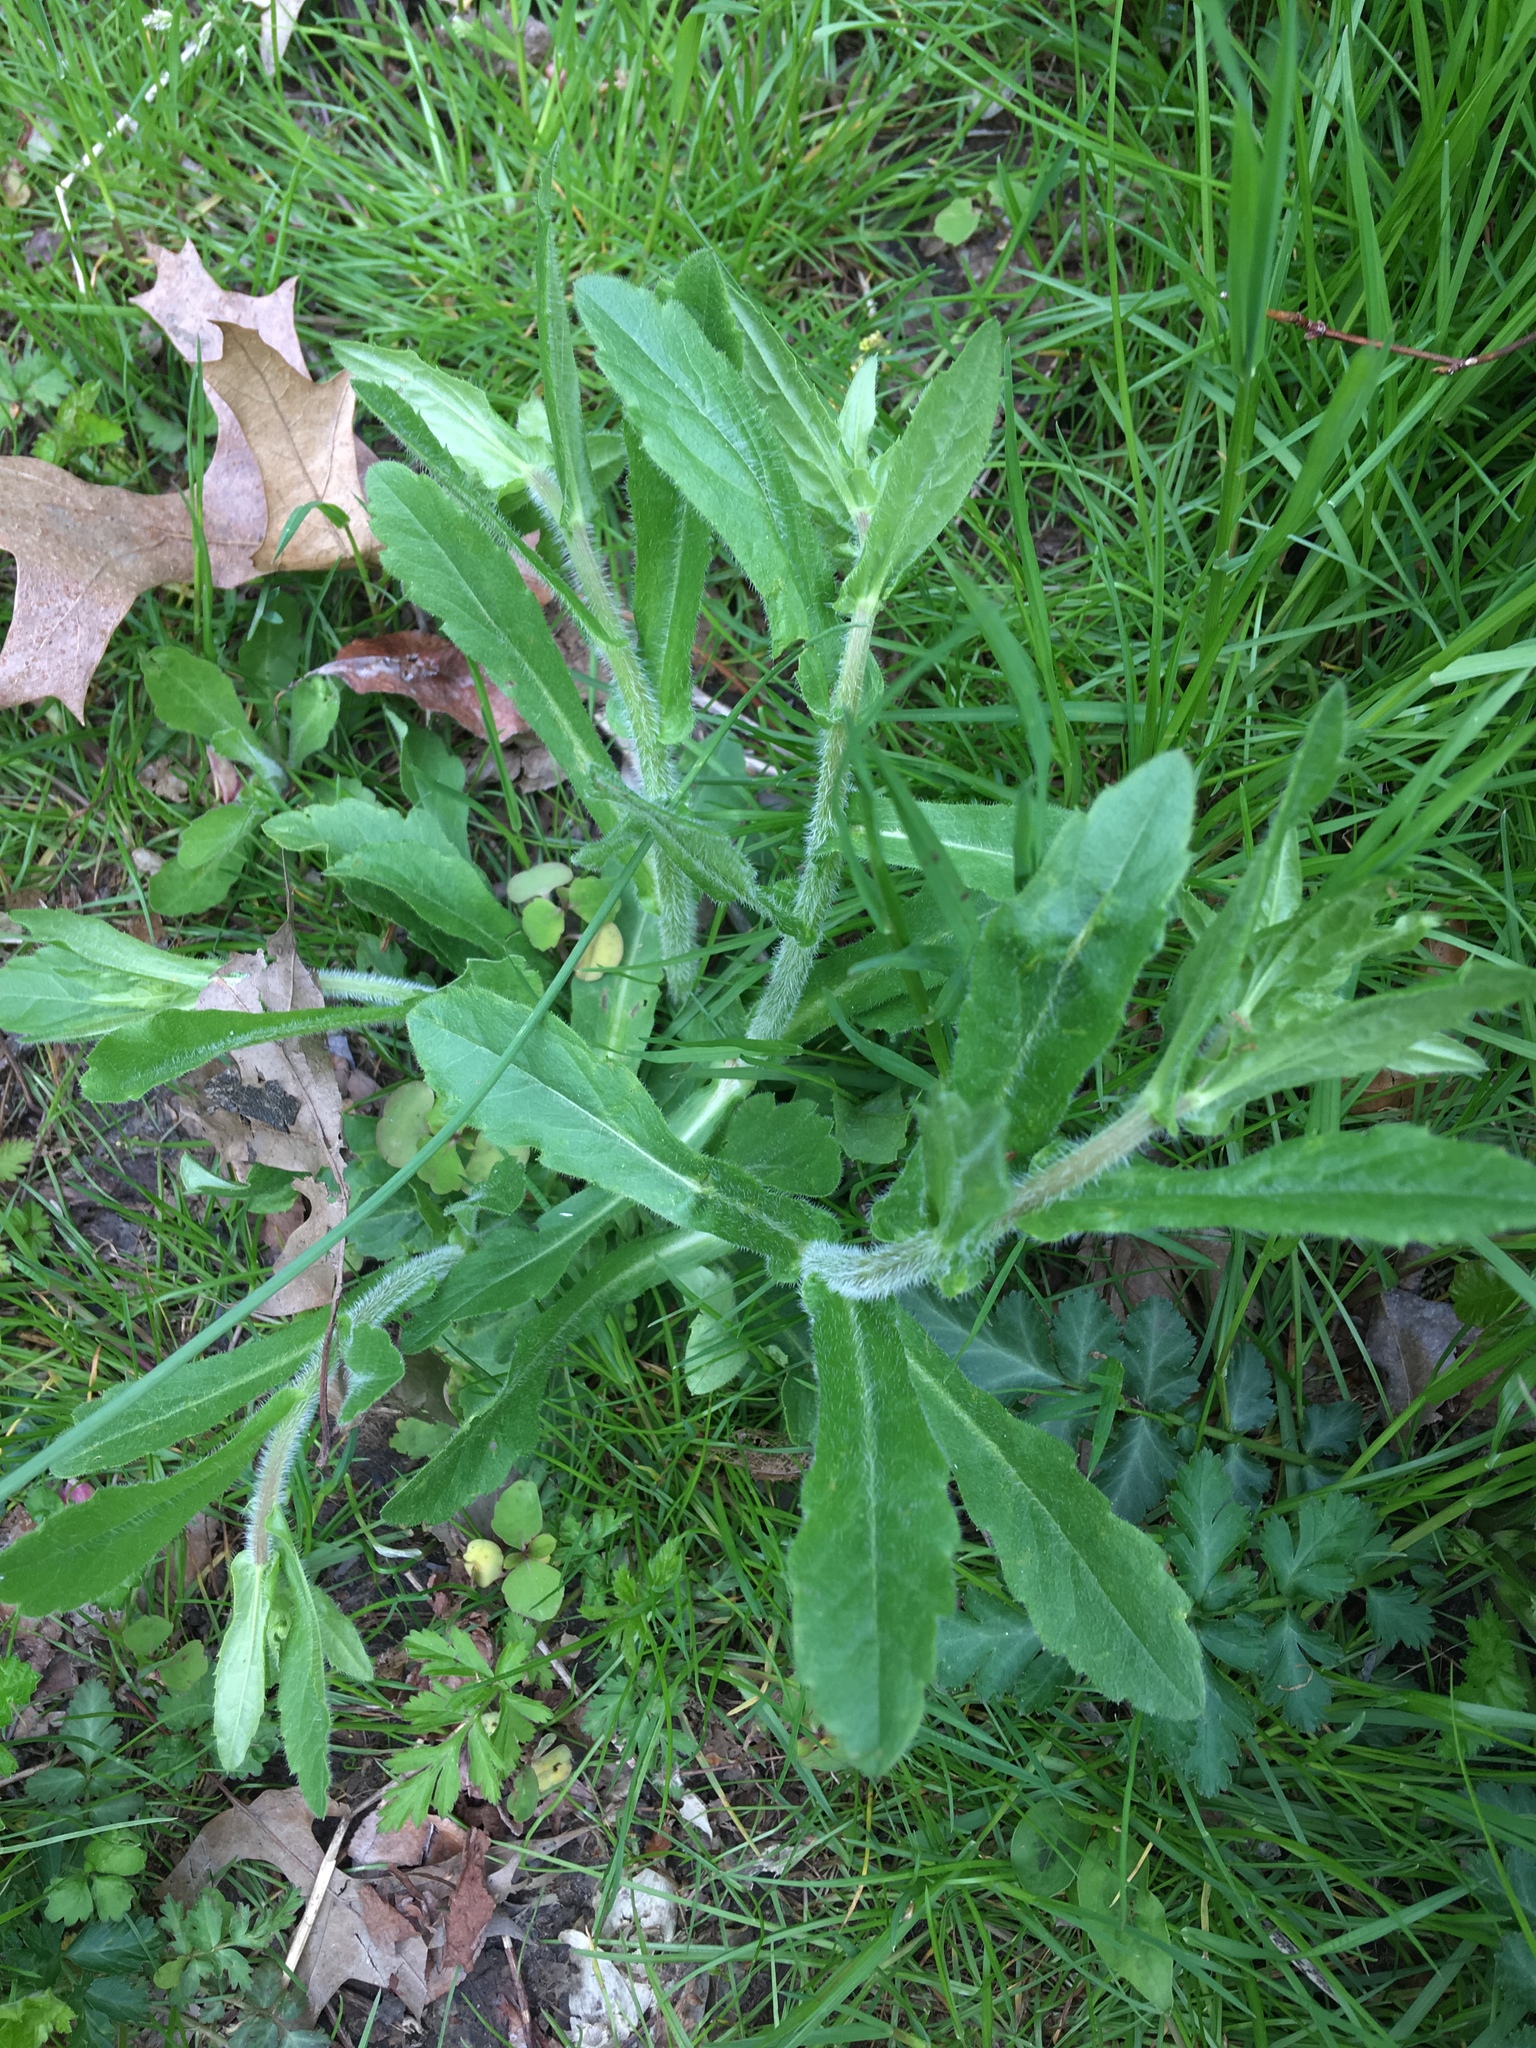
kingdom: Plantae
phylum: Tracheophyta
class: Magnoliopsida
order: Asterales
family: Asteraceae
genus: Erigeron
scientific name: Erigeron philadelphicus
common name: Robin's-plantain
